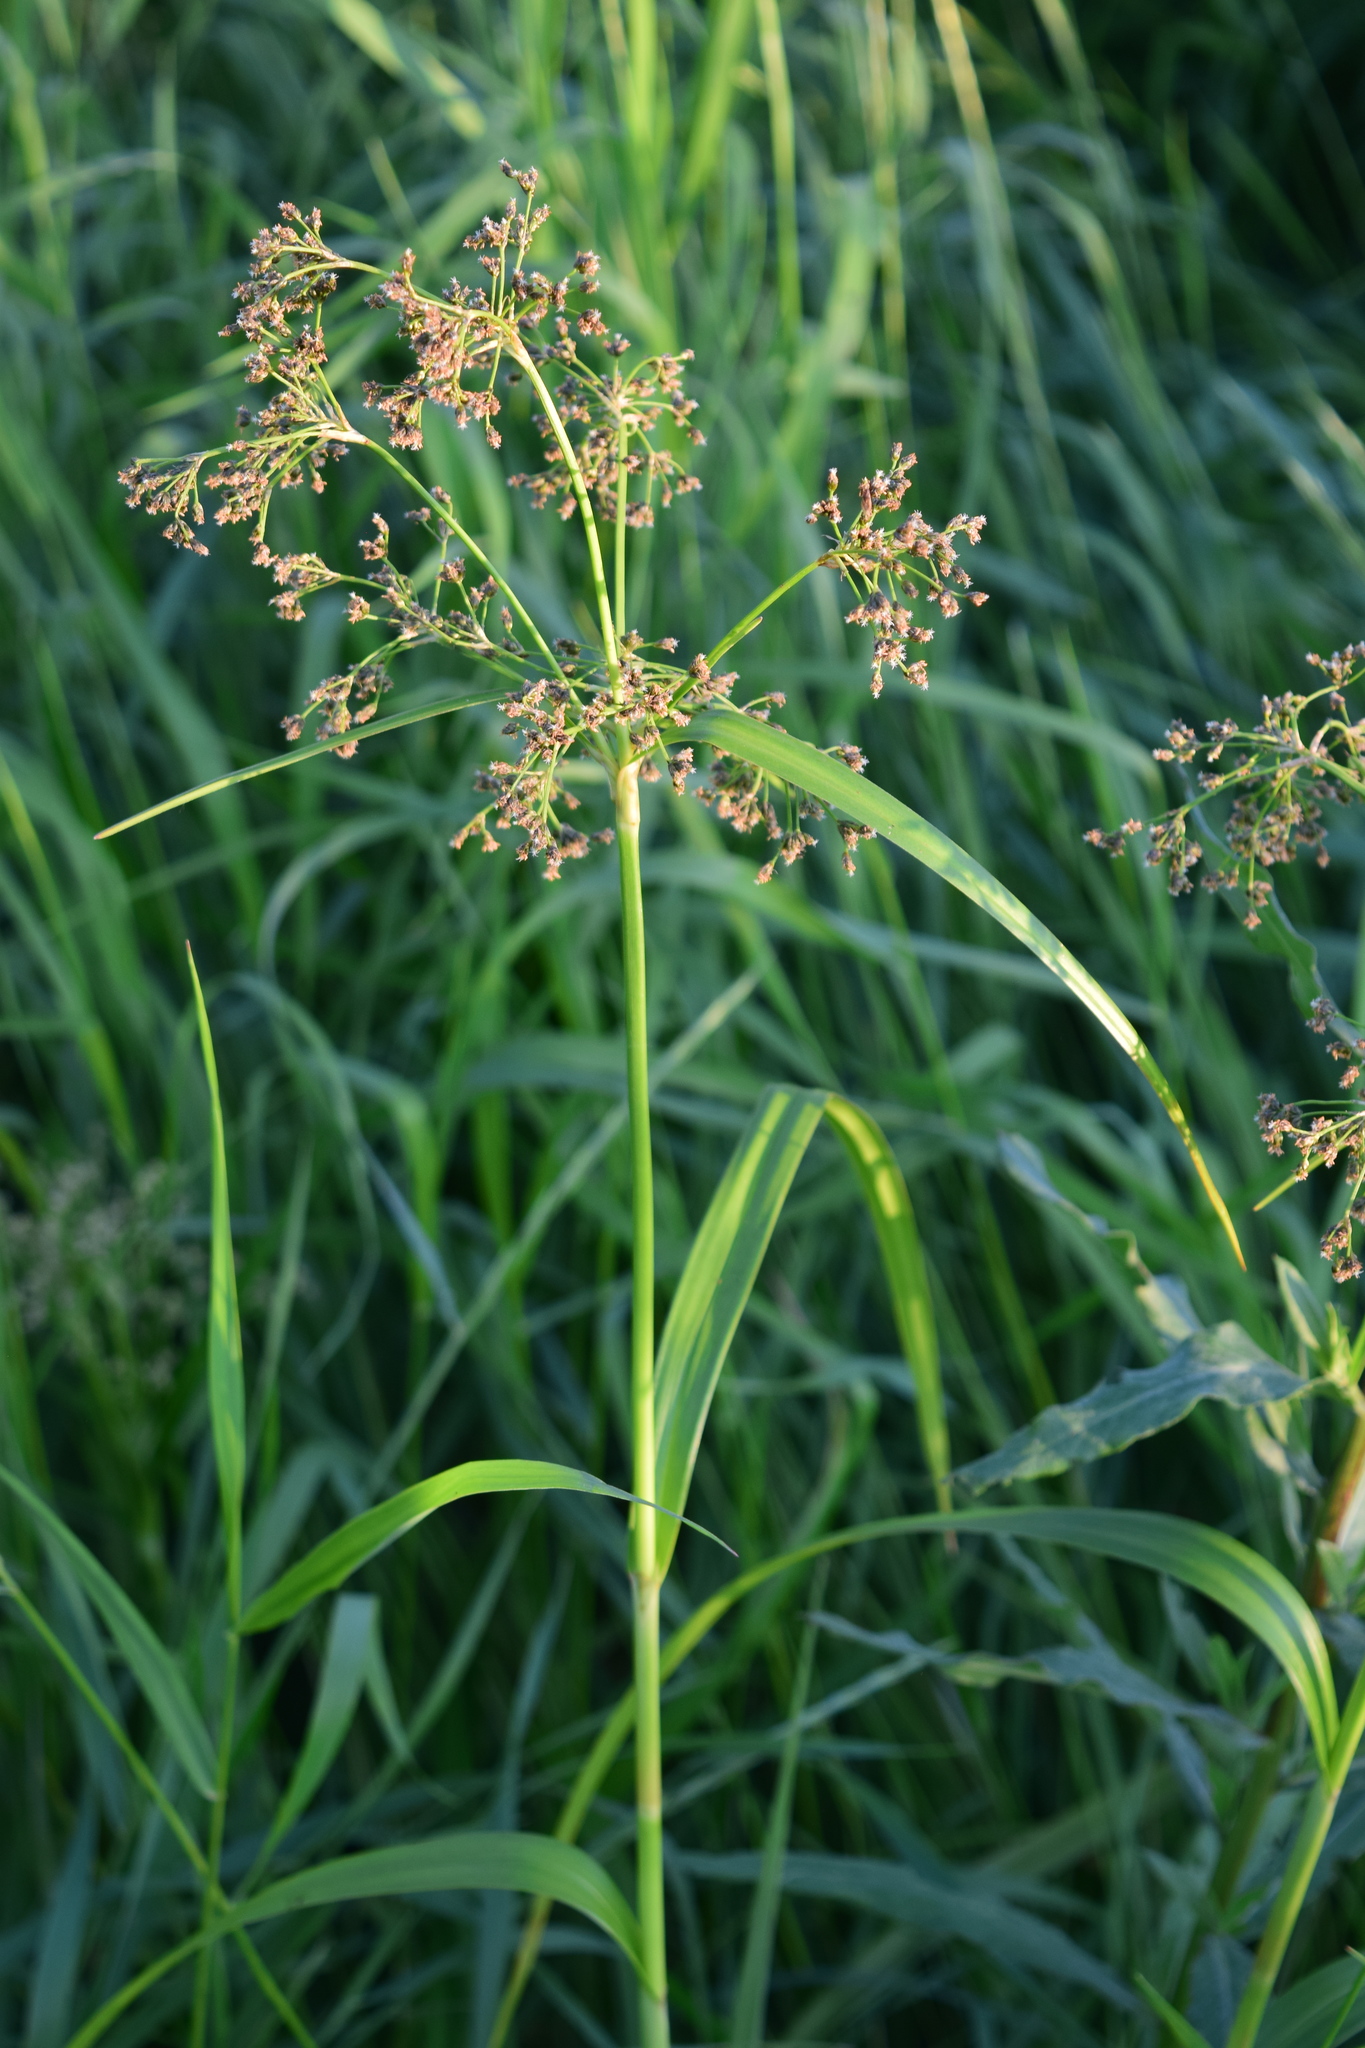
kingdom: Plantae
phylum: Tracheophyta
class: Liliopsida
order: Poales
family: Cyperaceae
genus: Scirpus
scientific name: Scirpus sylvaticus
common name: Wood club-rush
